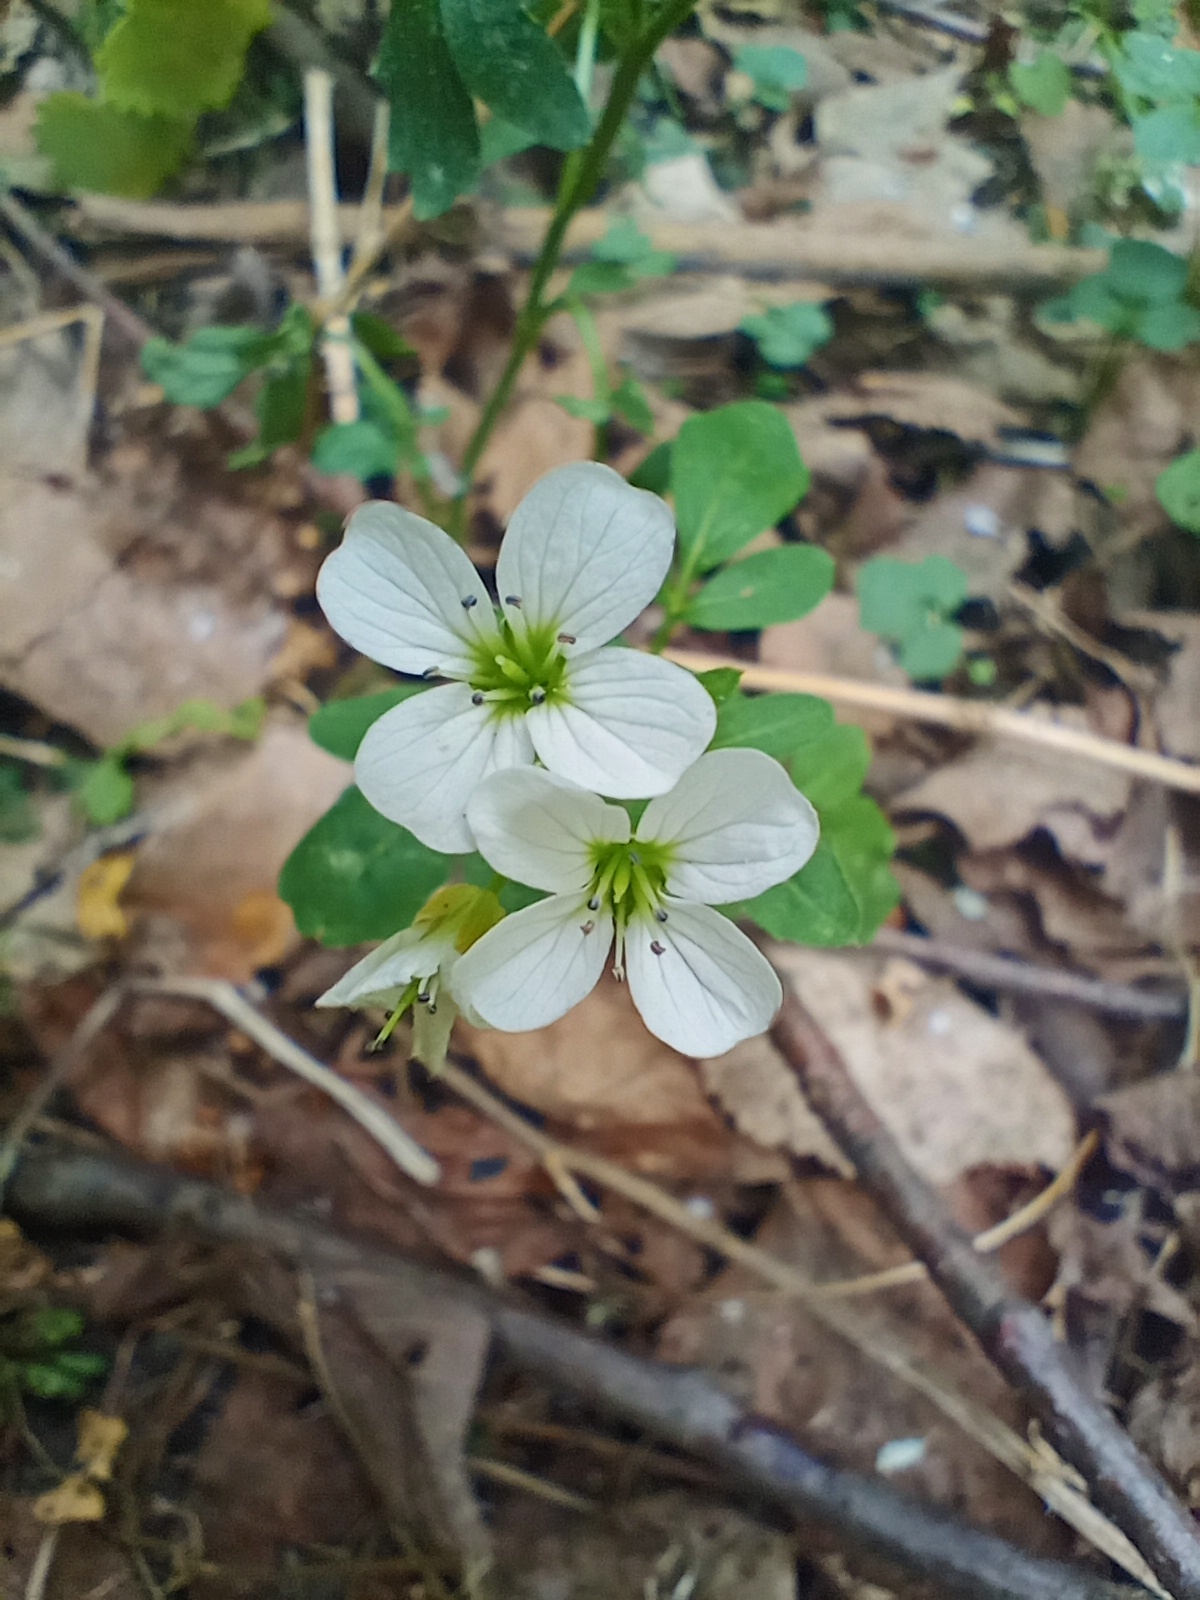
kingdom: Plantae
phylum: Tracheophyta
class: Magnoliopsida
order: Brassicales
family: Brassicaceae
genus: Cardamine
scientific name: Cardamine amara
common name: Large bitter-cress
